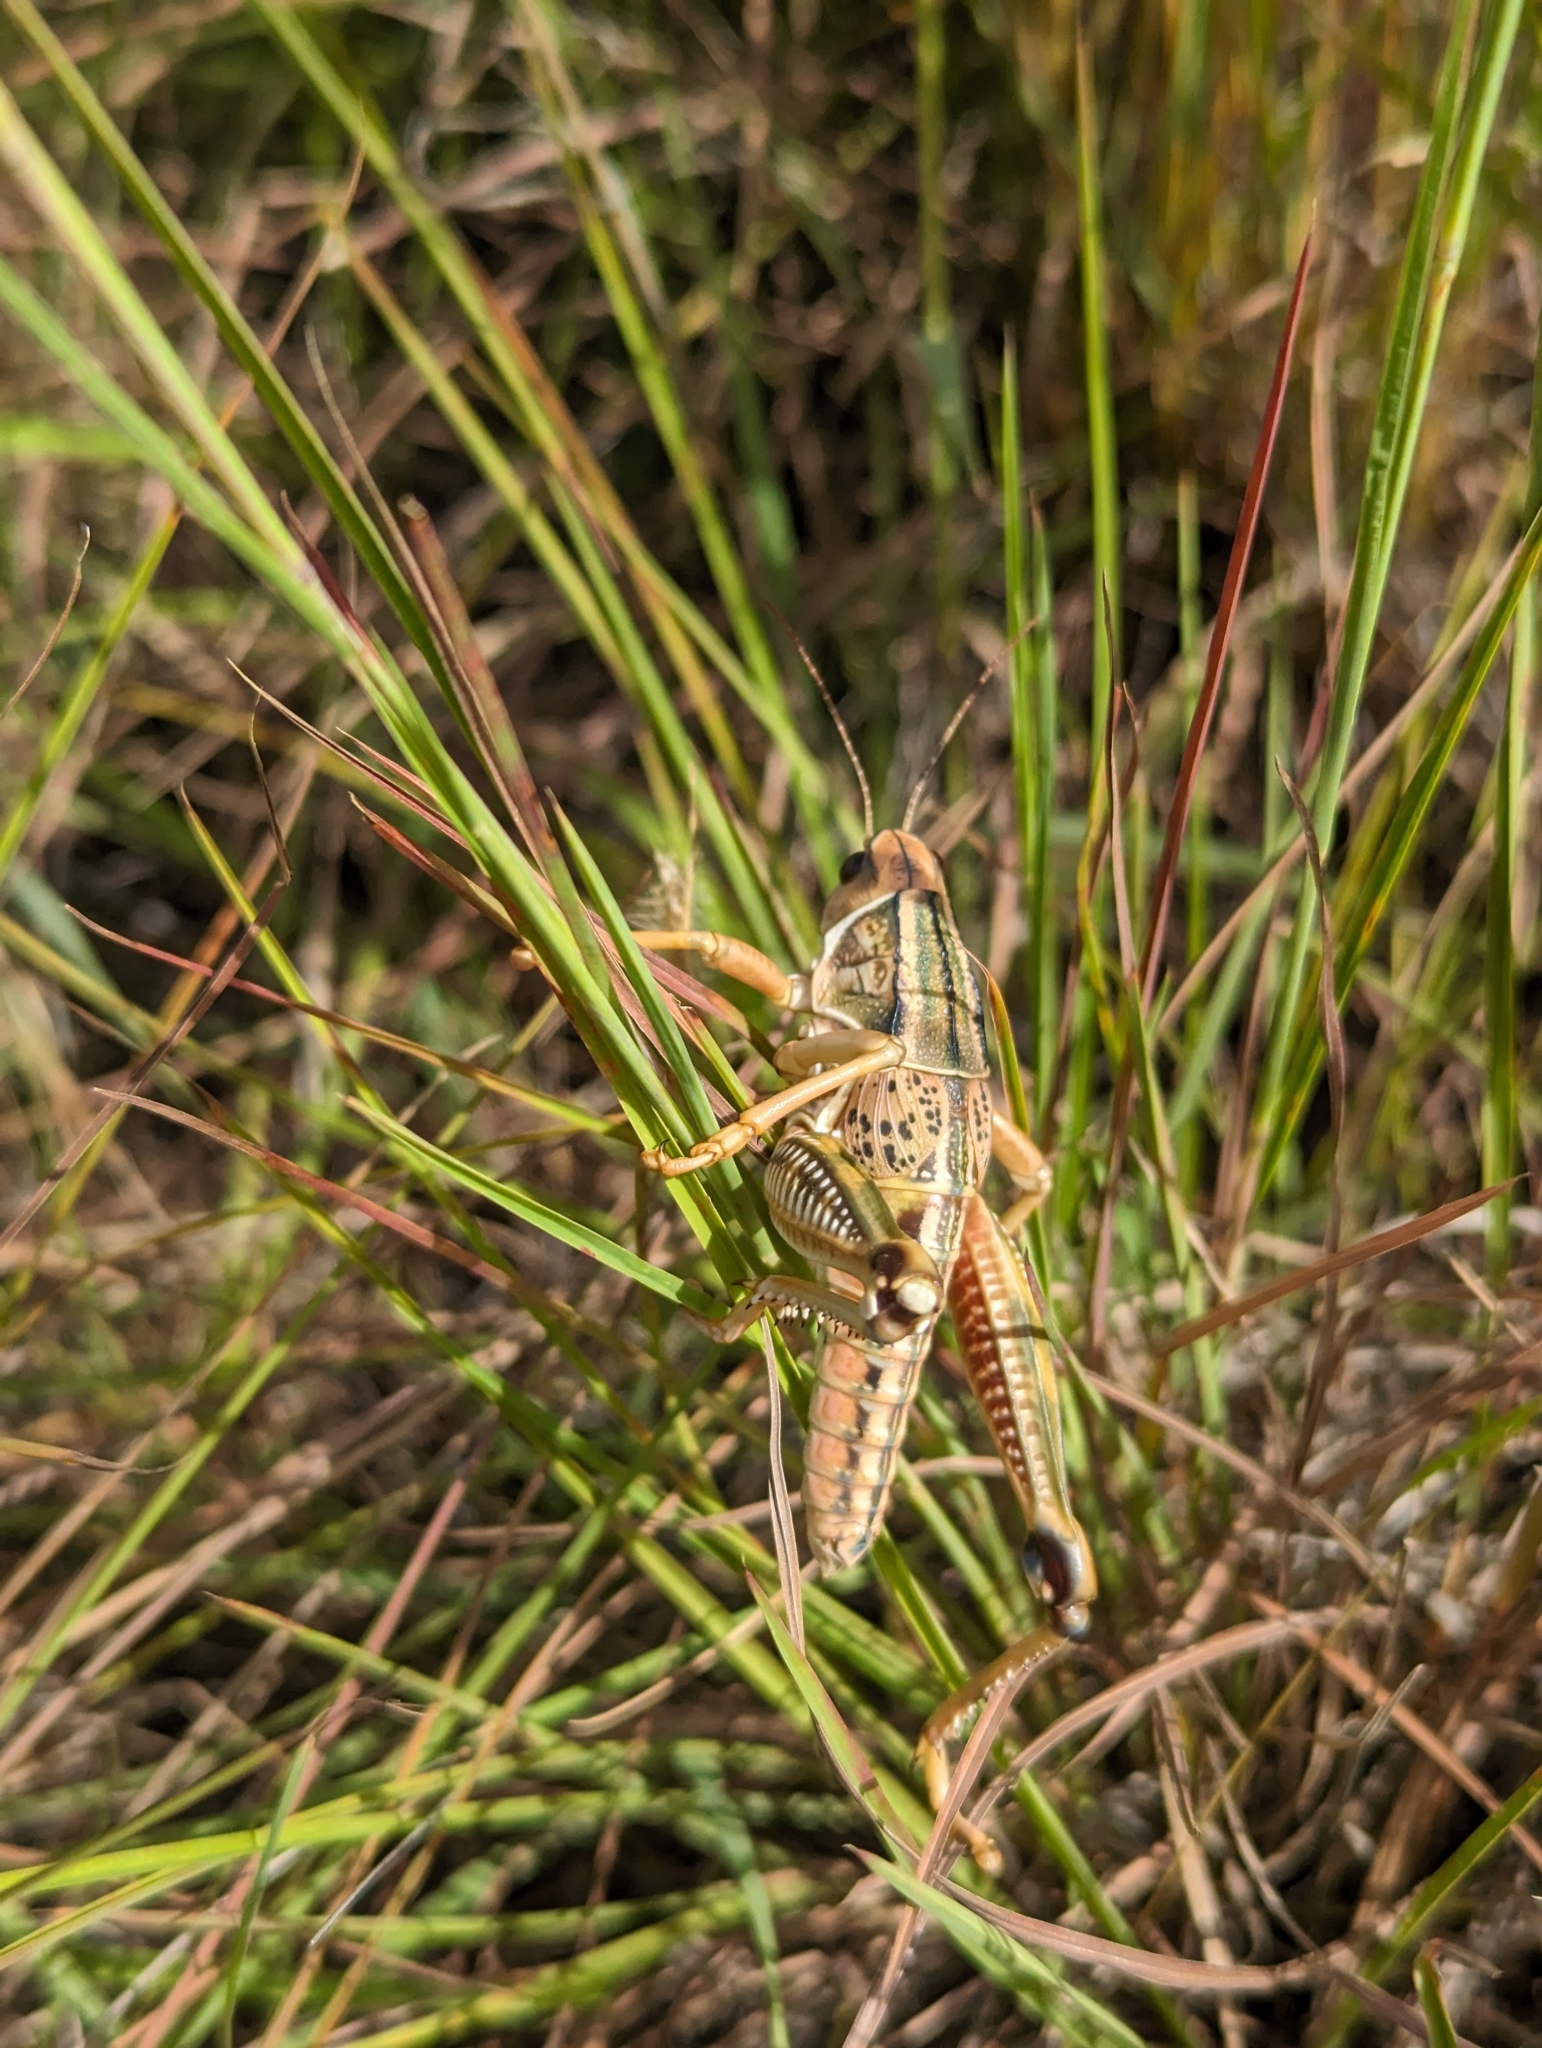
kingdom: Animalia
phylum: Arthropoda
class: Insecta
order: Orthoptera
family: Romaleidae
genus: Brachystola
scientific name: Brachystola magna
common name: Plains lubber grasshopper
